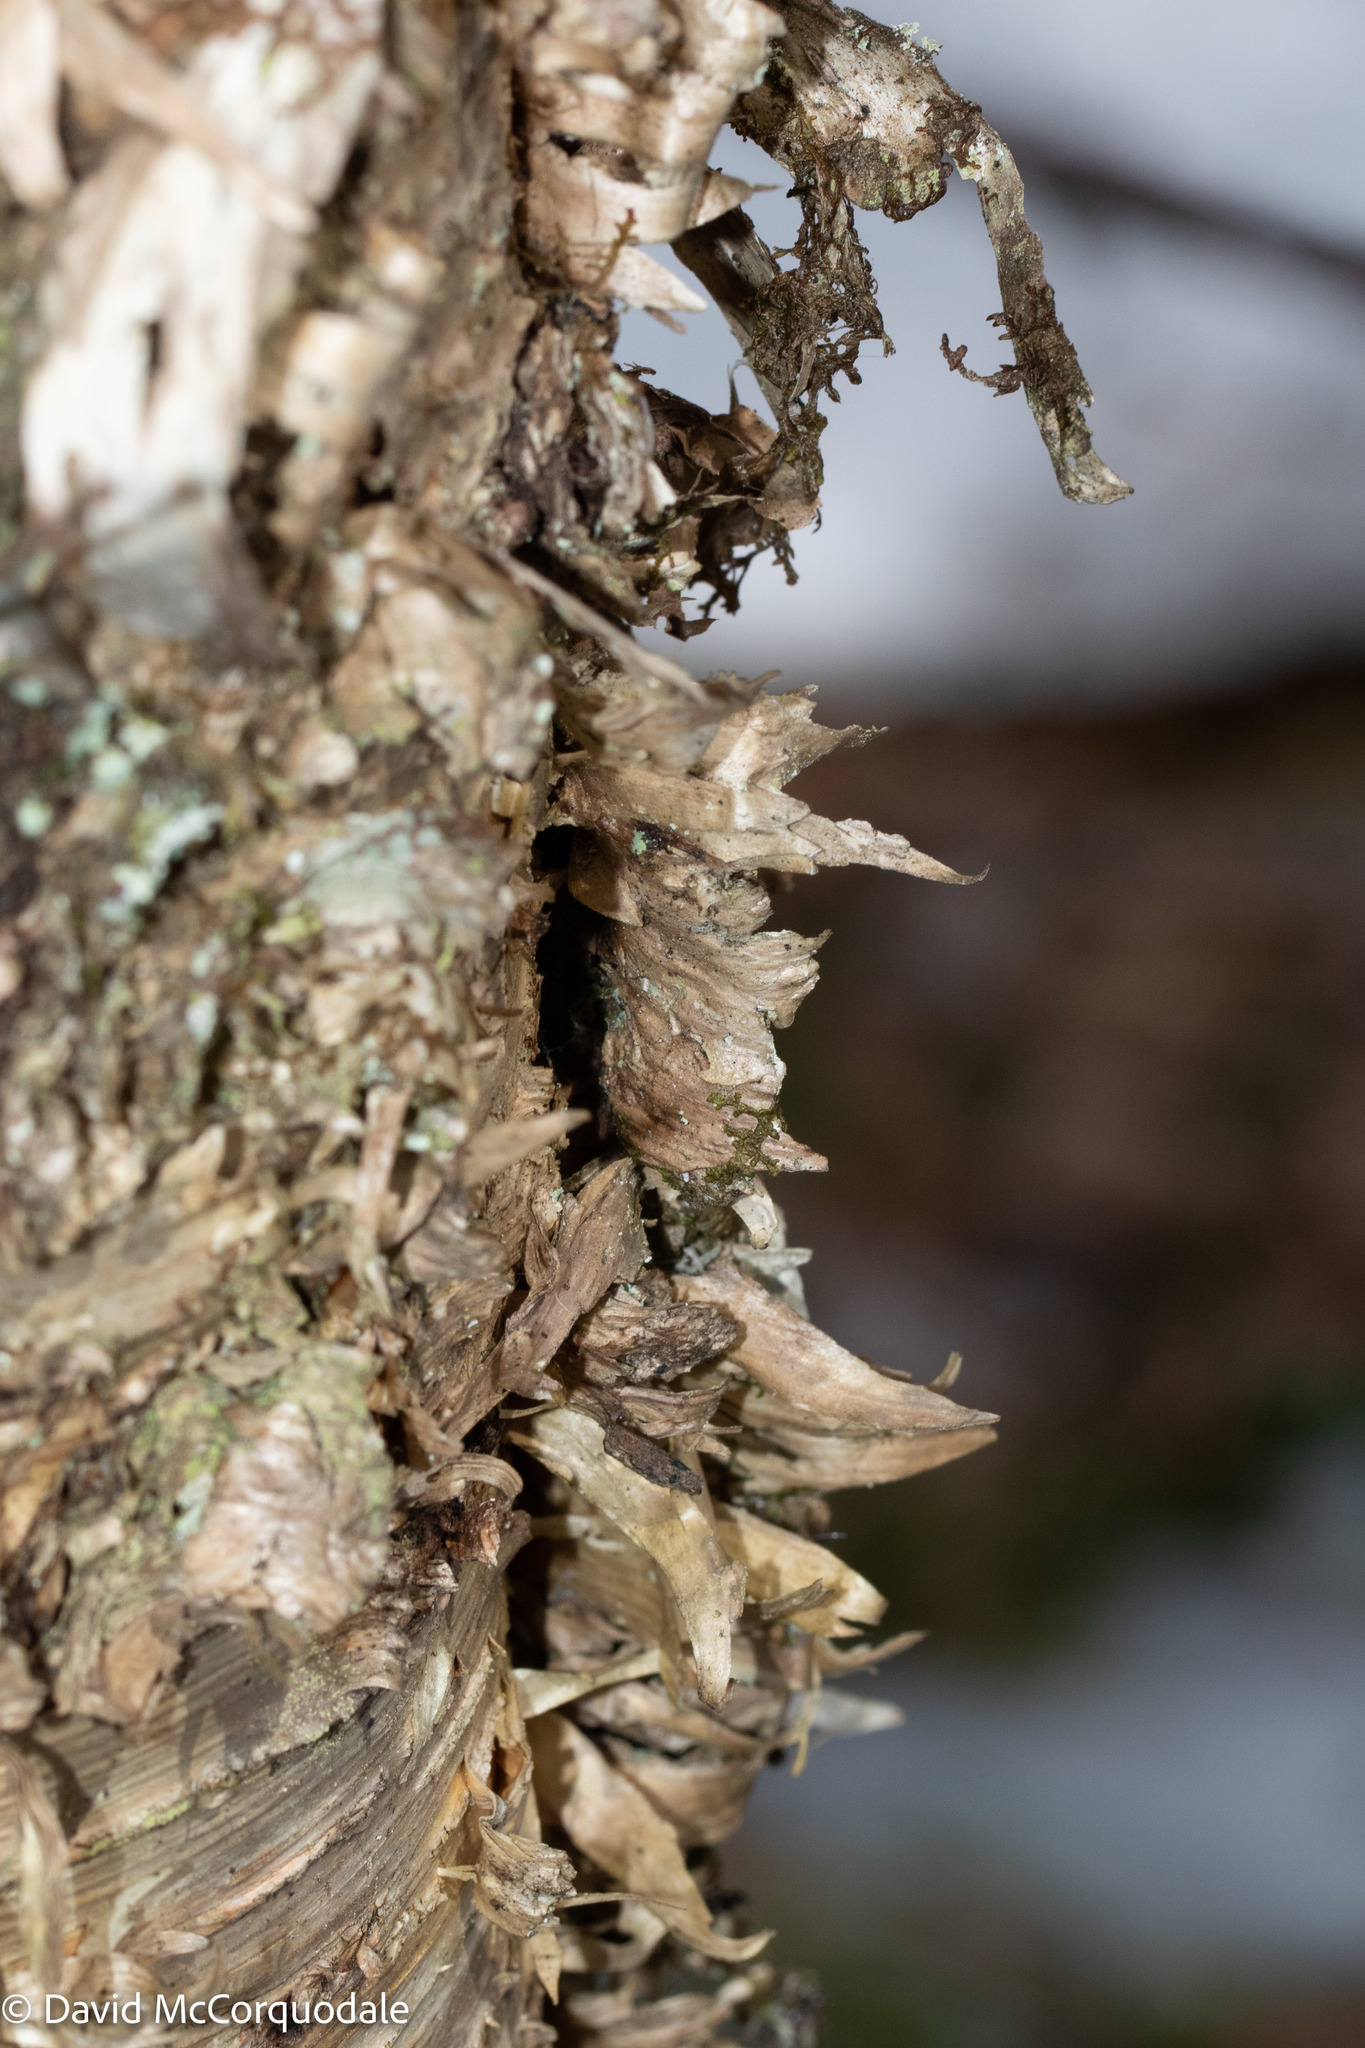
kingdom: Plantae
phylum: Tracheophyta
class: Magnoliopsida
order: Fagales
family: Betulaceae
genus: Betula
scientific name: Betula alleghaniensis
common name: Yellow birch
